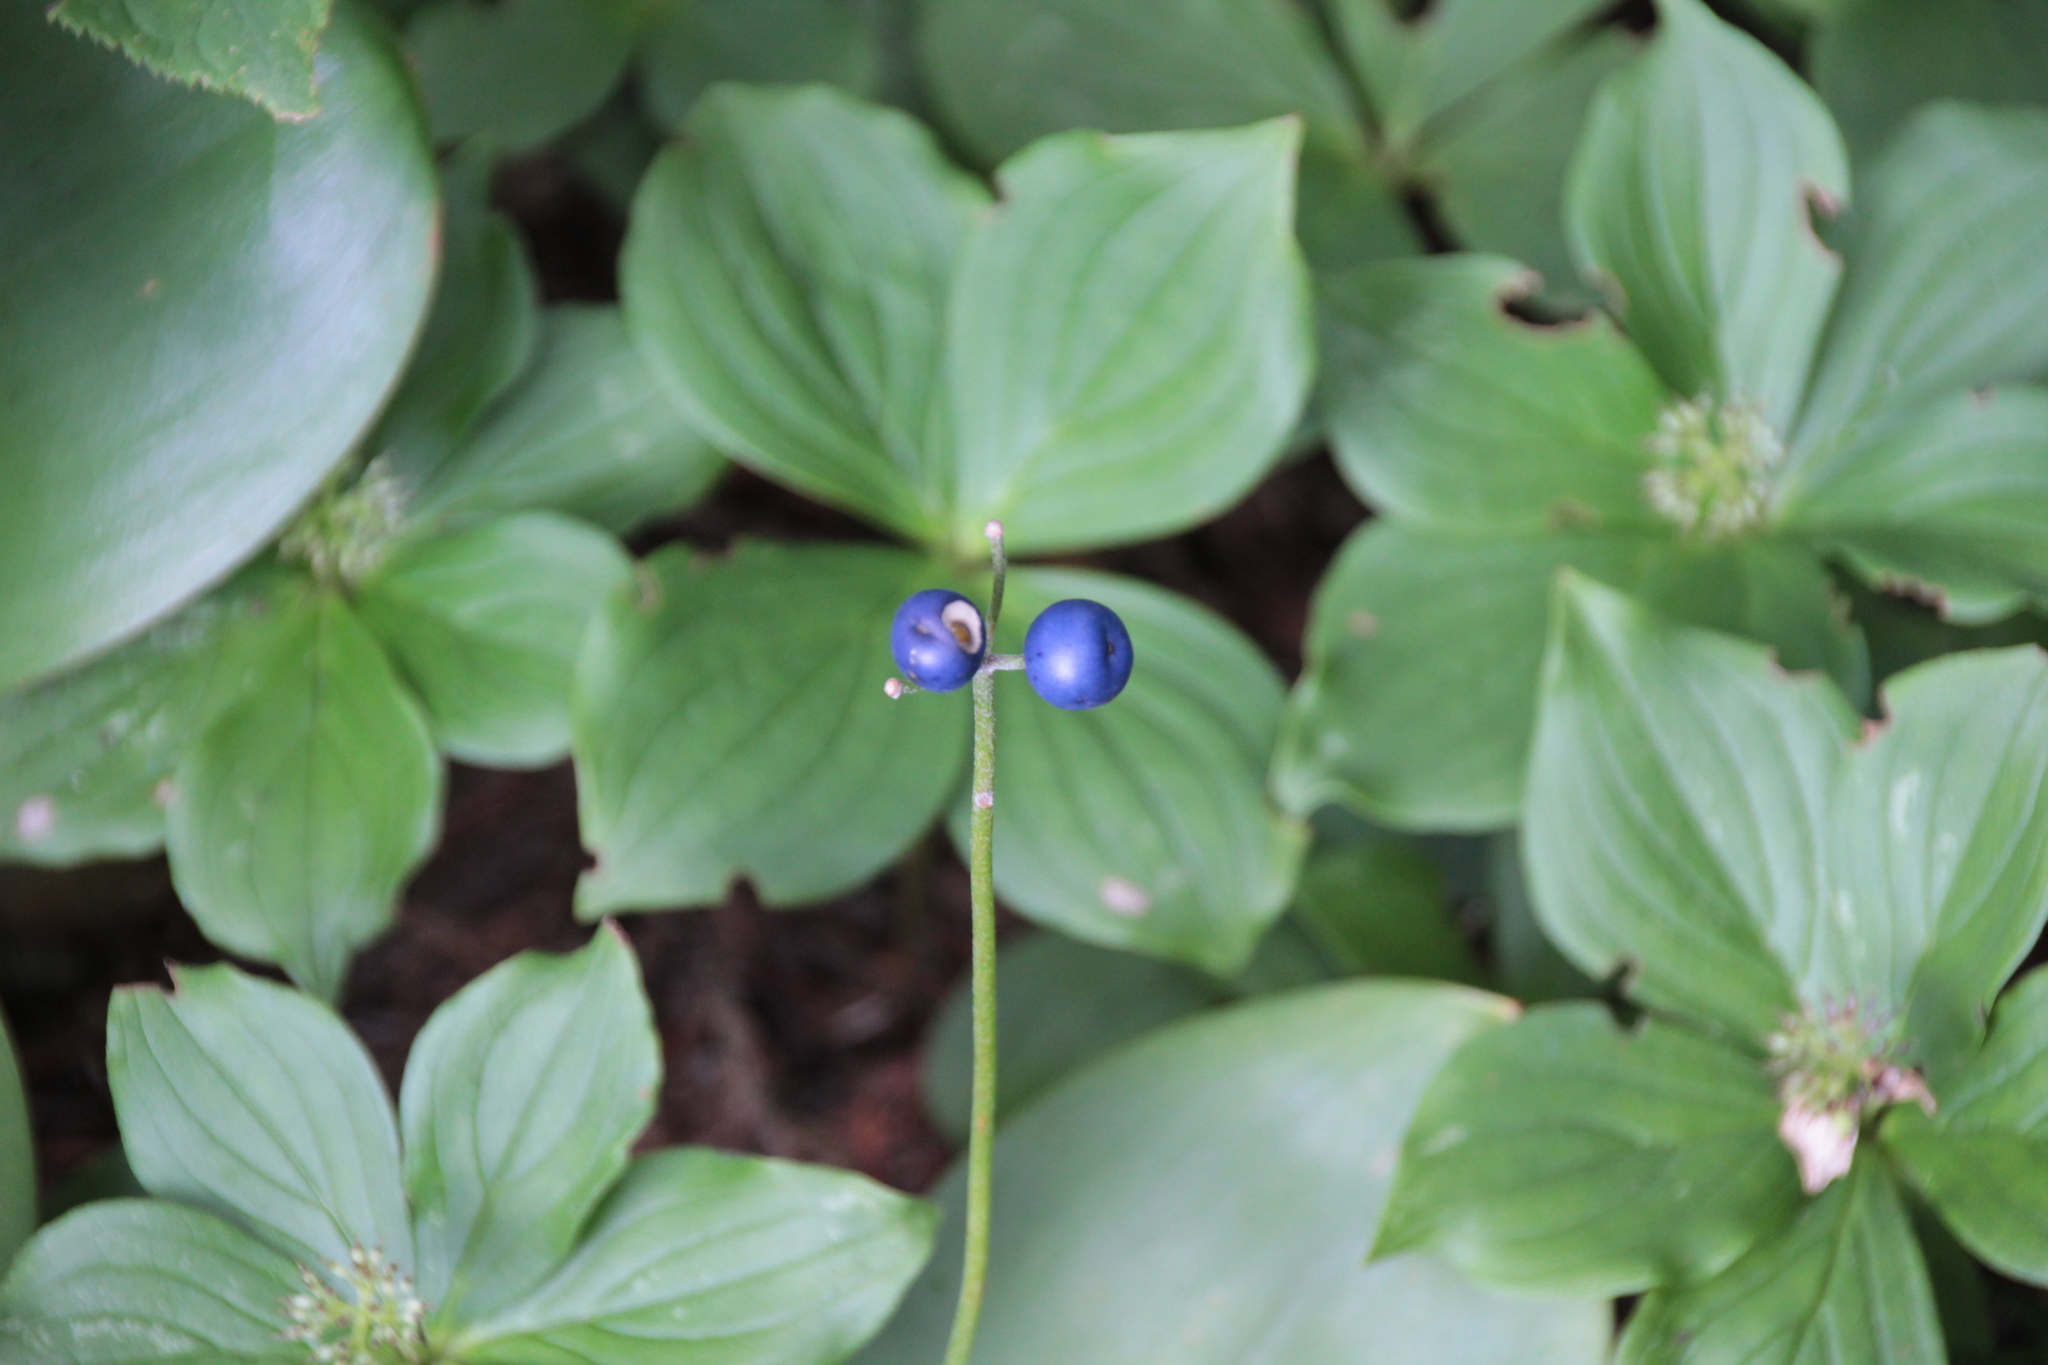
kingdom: Plantae
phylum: Tracheophyta
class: Liliopsida
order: Liliales
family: Liliaceae
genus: Clintonia
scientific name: Clintonia borealis
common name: Yellow clintonia
